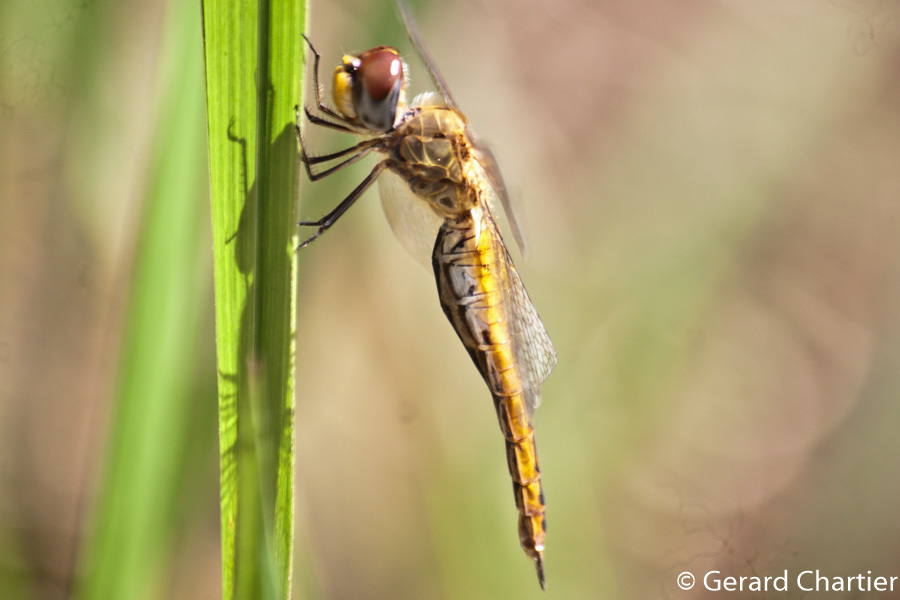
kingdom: Animalia
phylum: Arthropoda
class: Insecta
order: Odonata
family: Libellulidae
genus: Pantala
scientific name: Pantala flavescens
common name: Wandering glider
